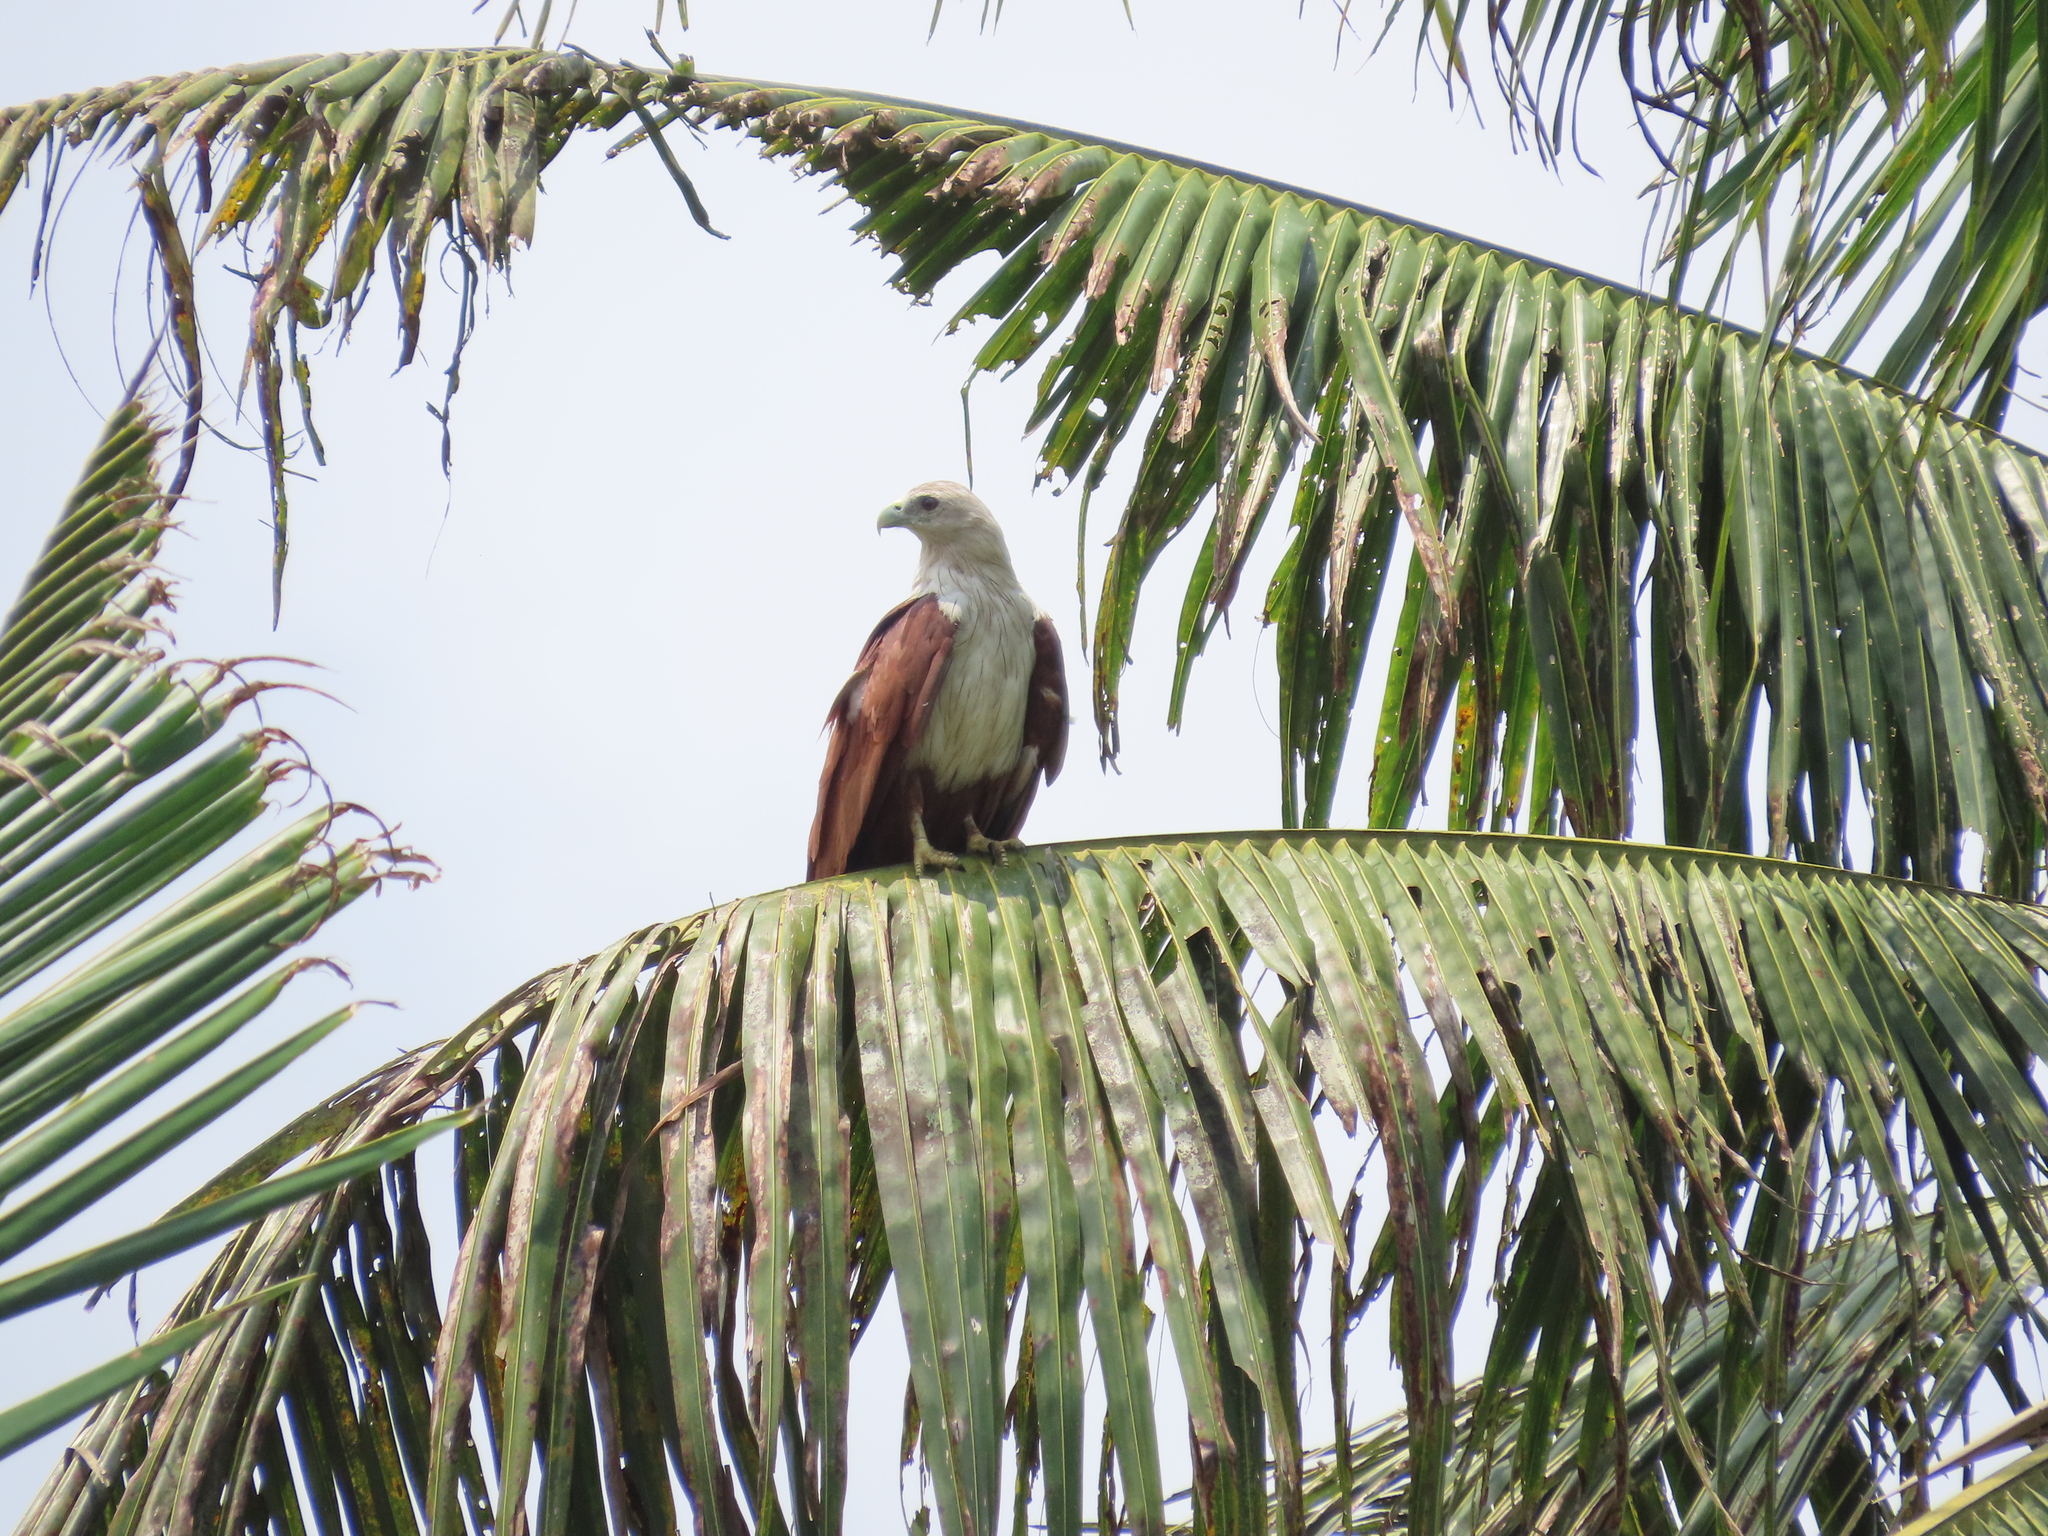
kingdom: Animalia
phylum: Chordata
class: Aves
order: Accipitriformes
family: Accipitridae
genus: Haliastur
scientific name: Haliastur indus
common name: Brahminy kite
